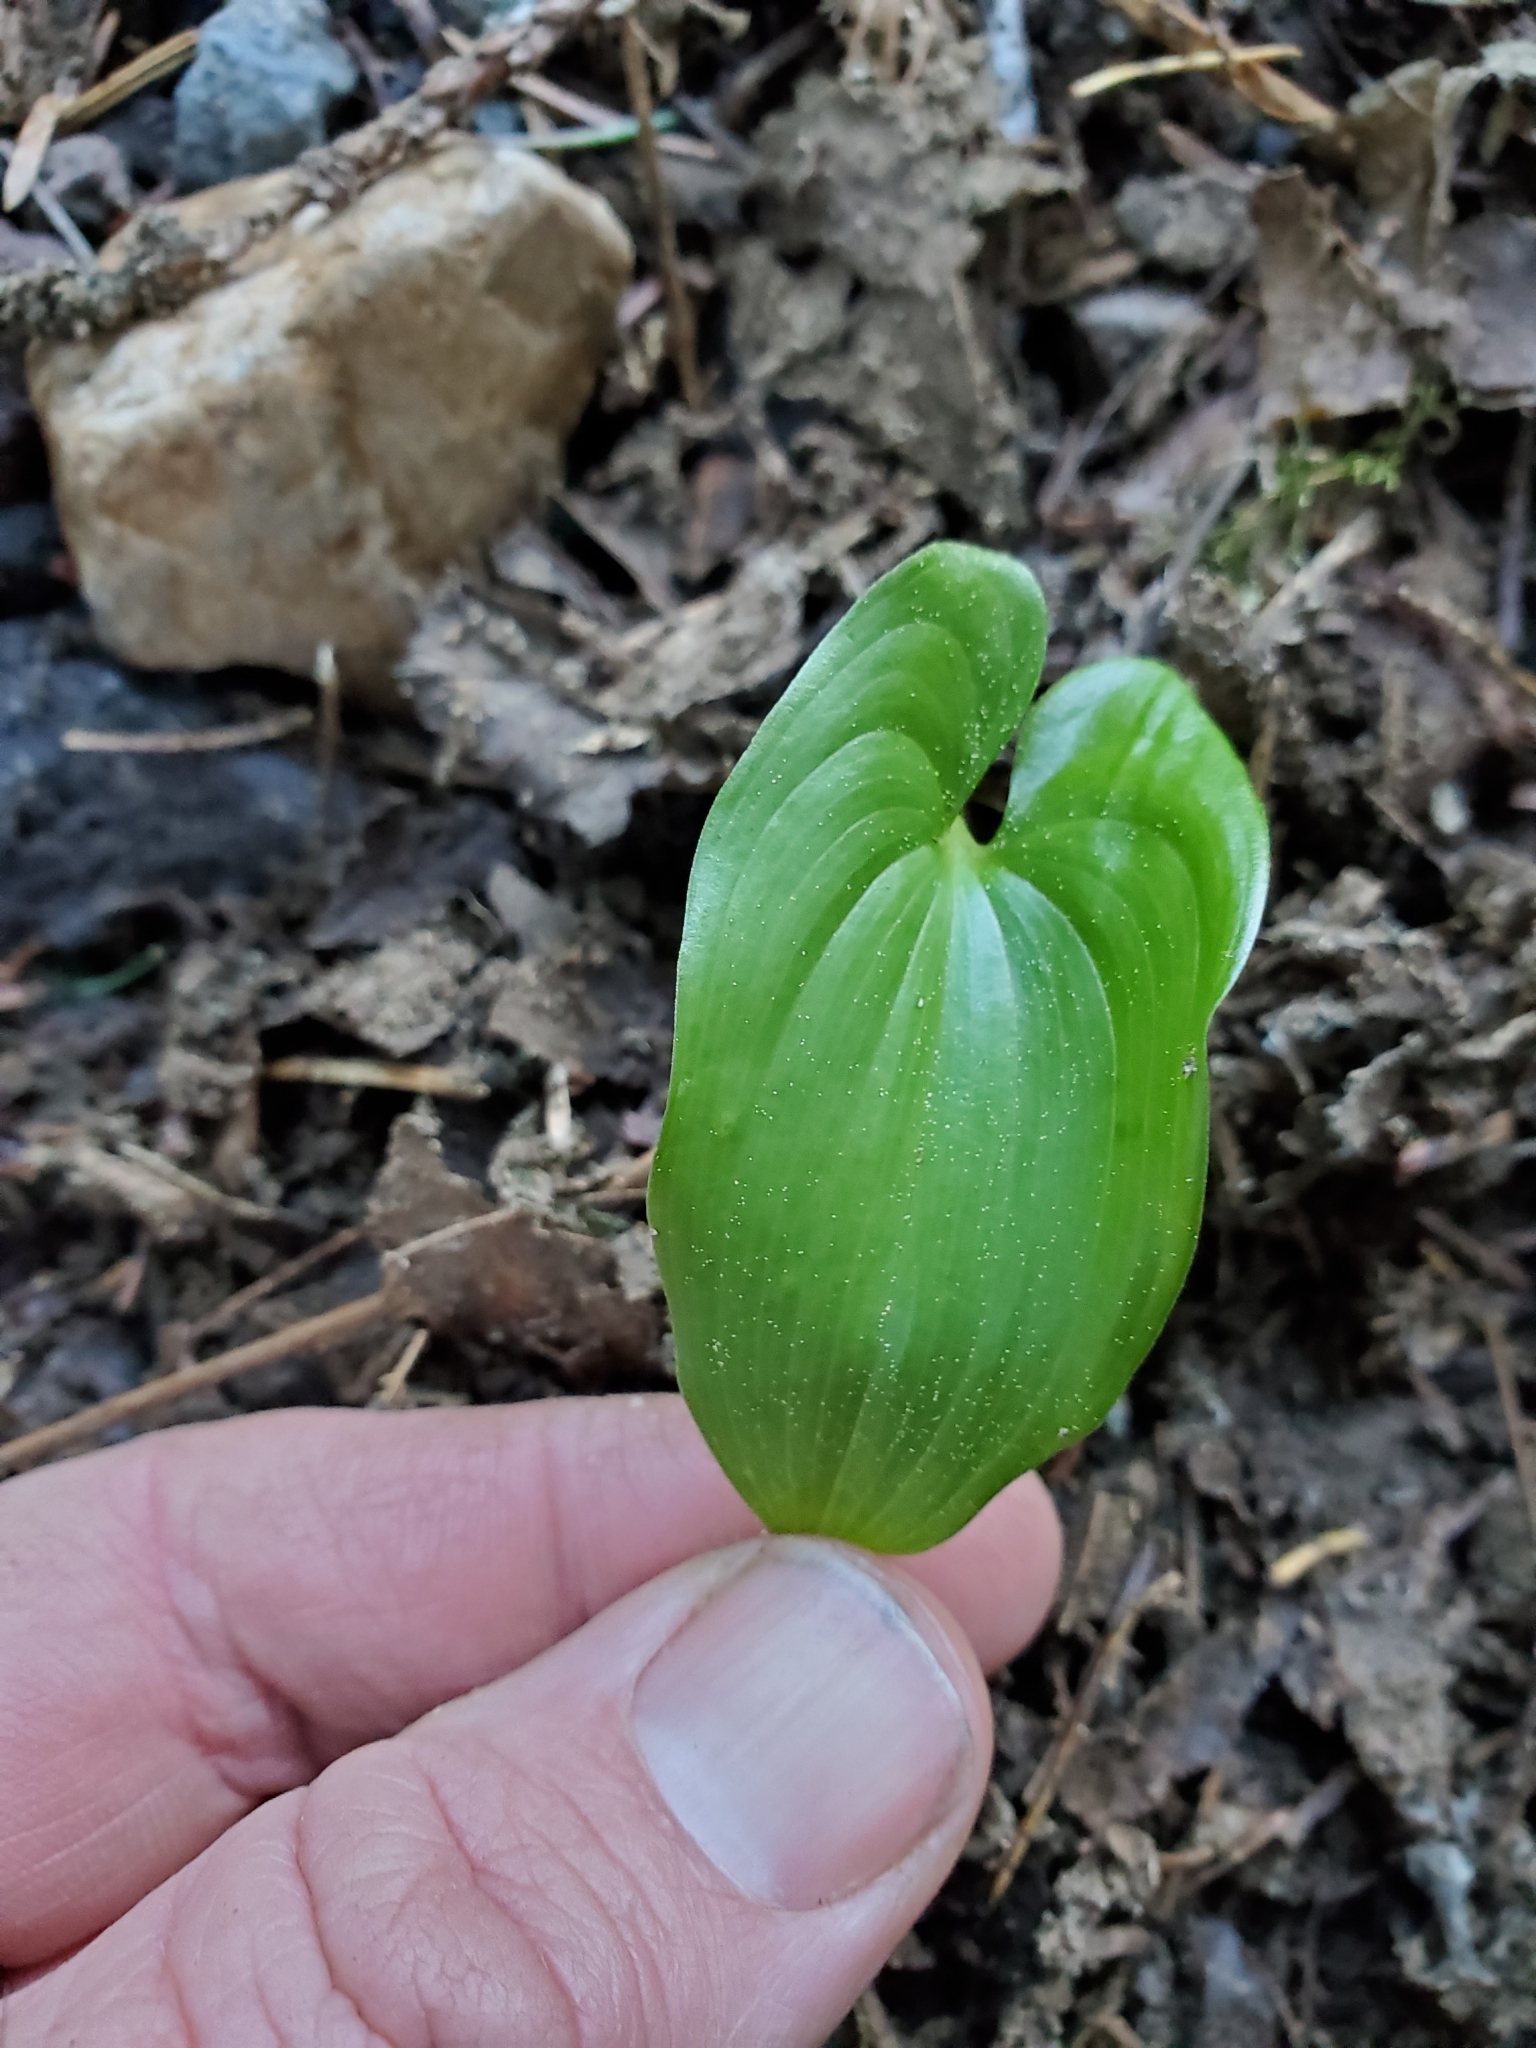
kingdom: Plantae
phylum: Tracheophyta
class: Liliopsida
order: Asparagales
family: Asparagaceae
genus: Maianthemum
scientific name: Maianthemum dilatatum
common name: False lily-of-the-valley
